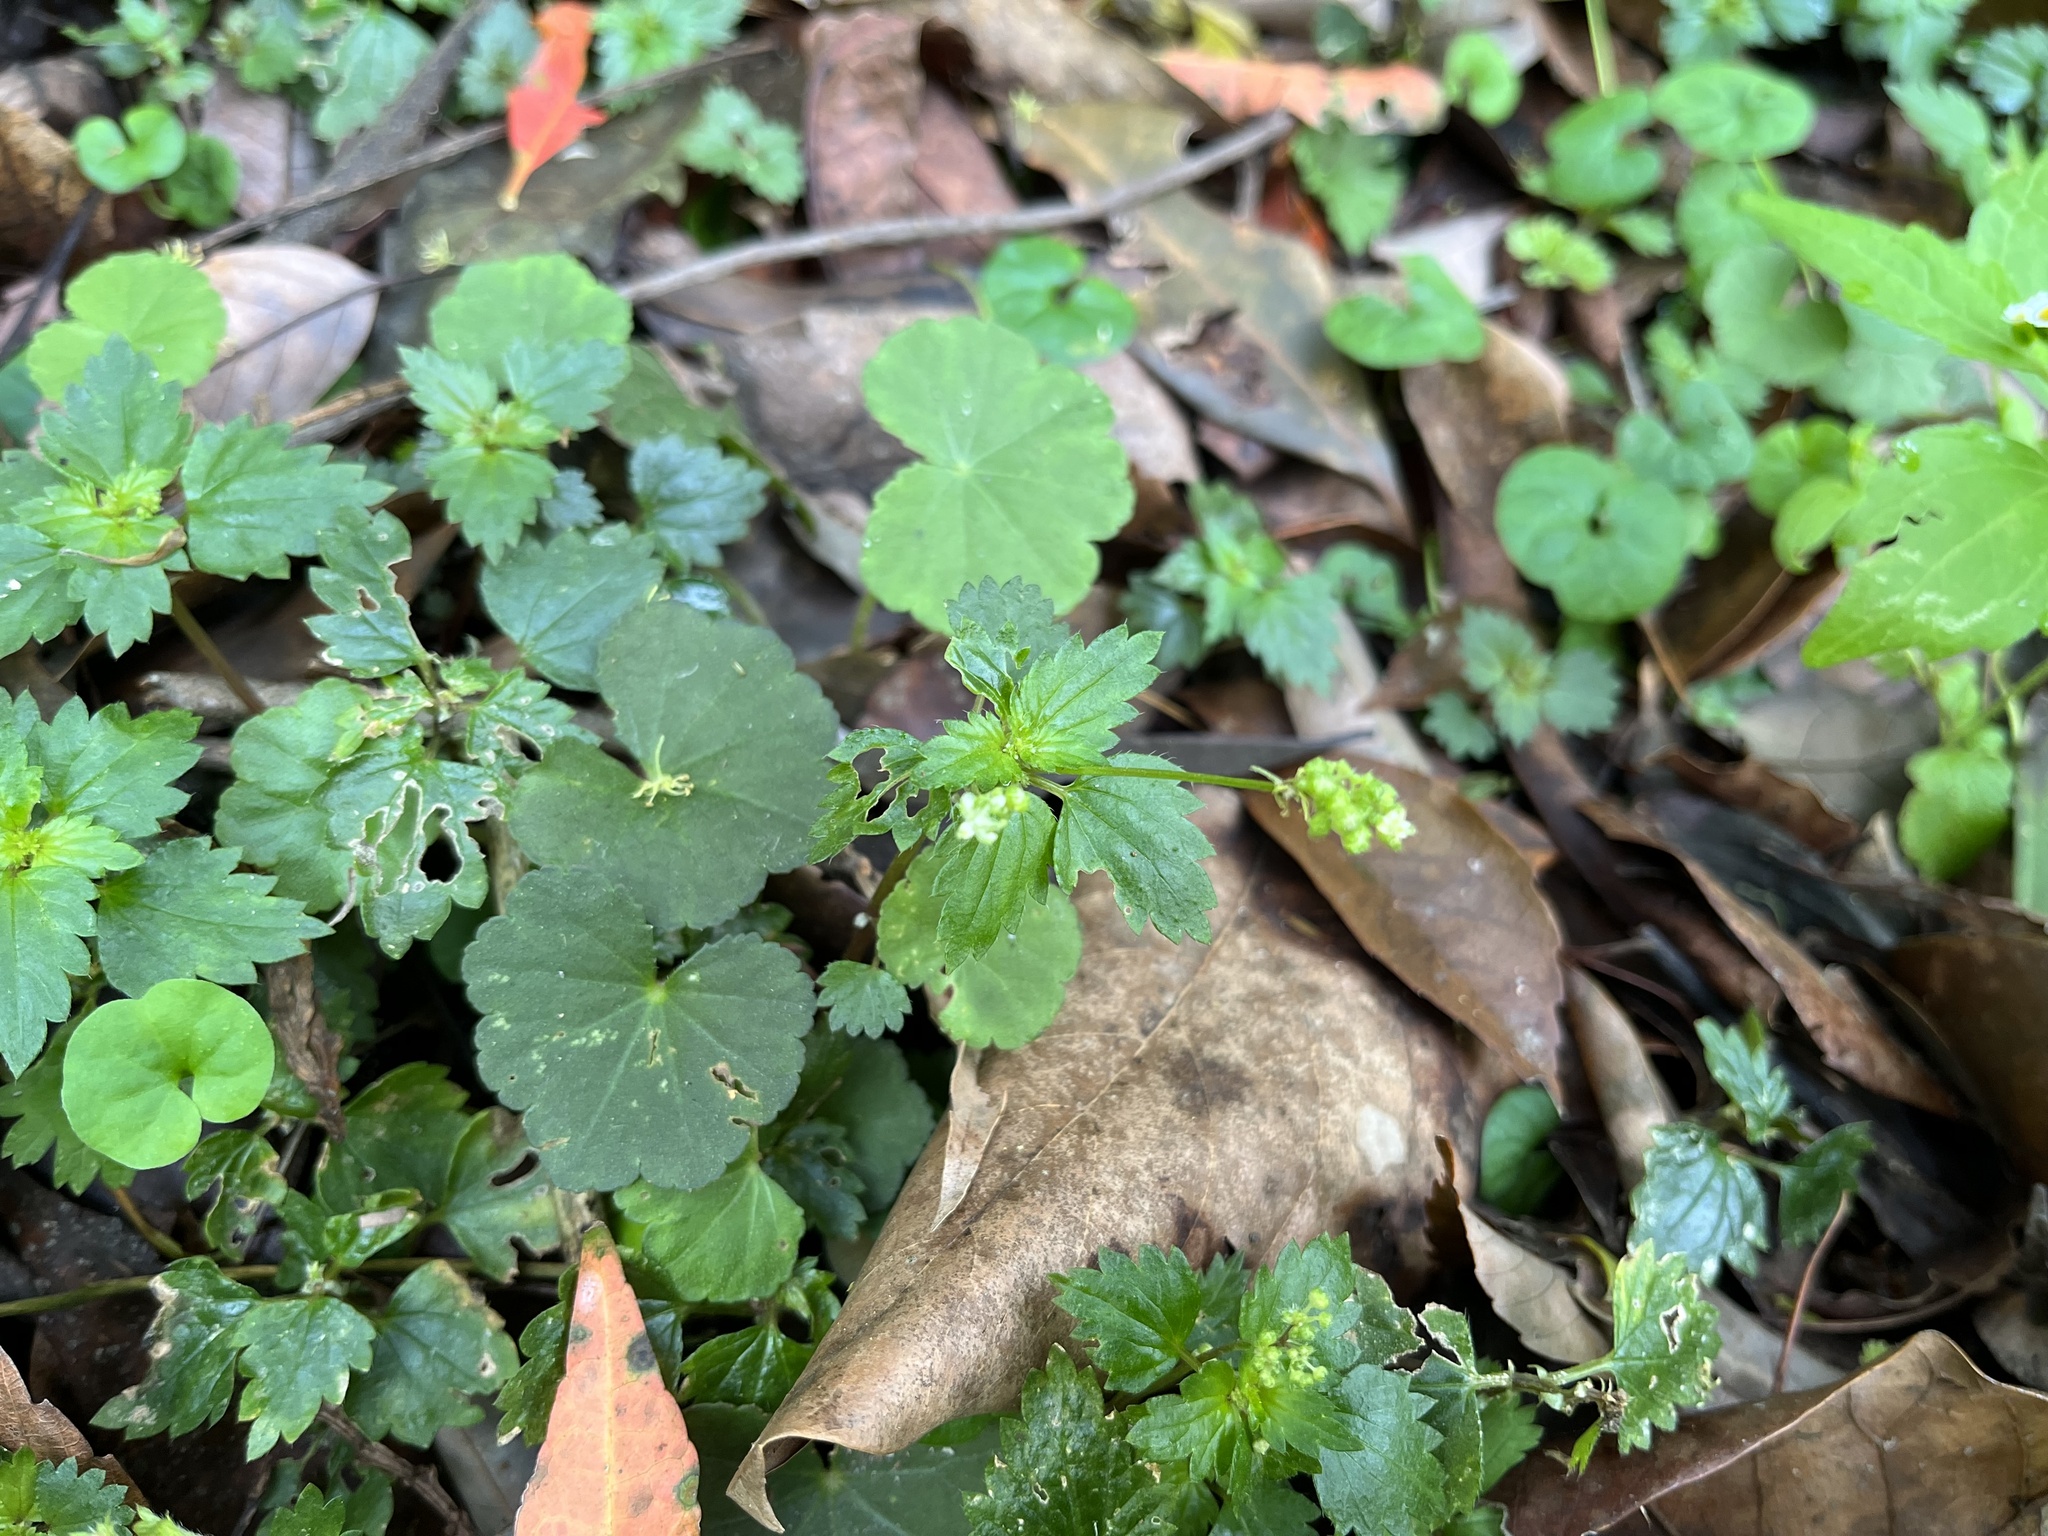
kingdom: Plantae
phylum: Tracheophyta
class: Magnoliopsida
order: Rosales
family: Urticaceae
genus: Nanocnide
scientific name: Nanocnide japonica
